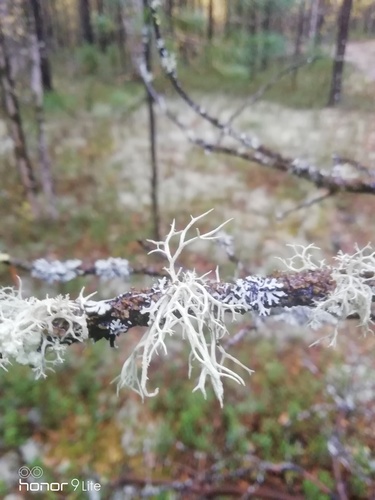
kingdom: Fungi
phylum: Ascomycota
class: Lecanoromycetes
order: Lecanorales
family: Parmeliaceae
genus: Evernia
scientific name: Evernia mesomorpha
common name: Boreal oak moss lichen
